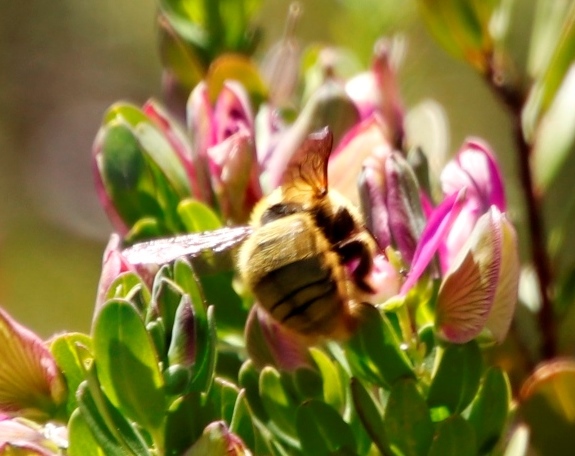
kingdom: Plantae
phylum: Tracheophyta
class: Magnoliopsida
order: Fabales
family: Polygalaceae
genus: Polygala
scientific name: Polygala myrtifolia
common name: Myrtle-leaf milkwort
